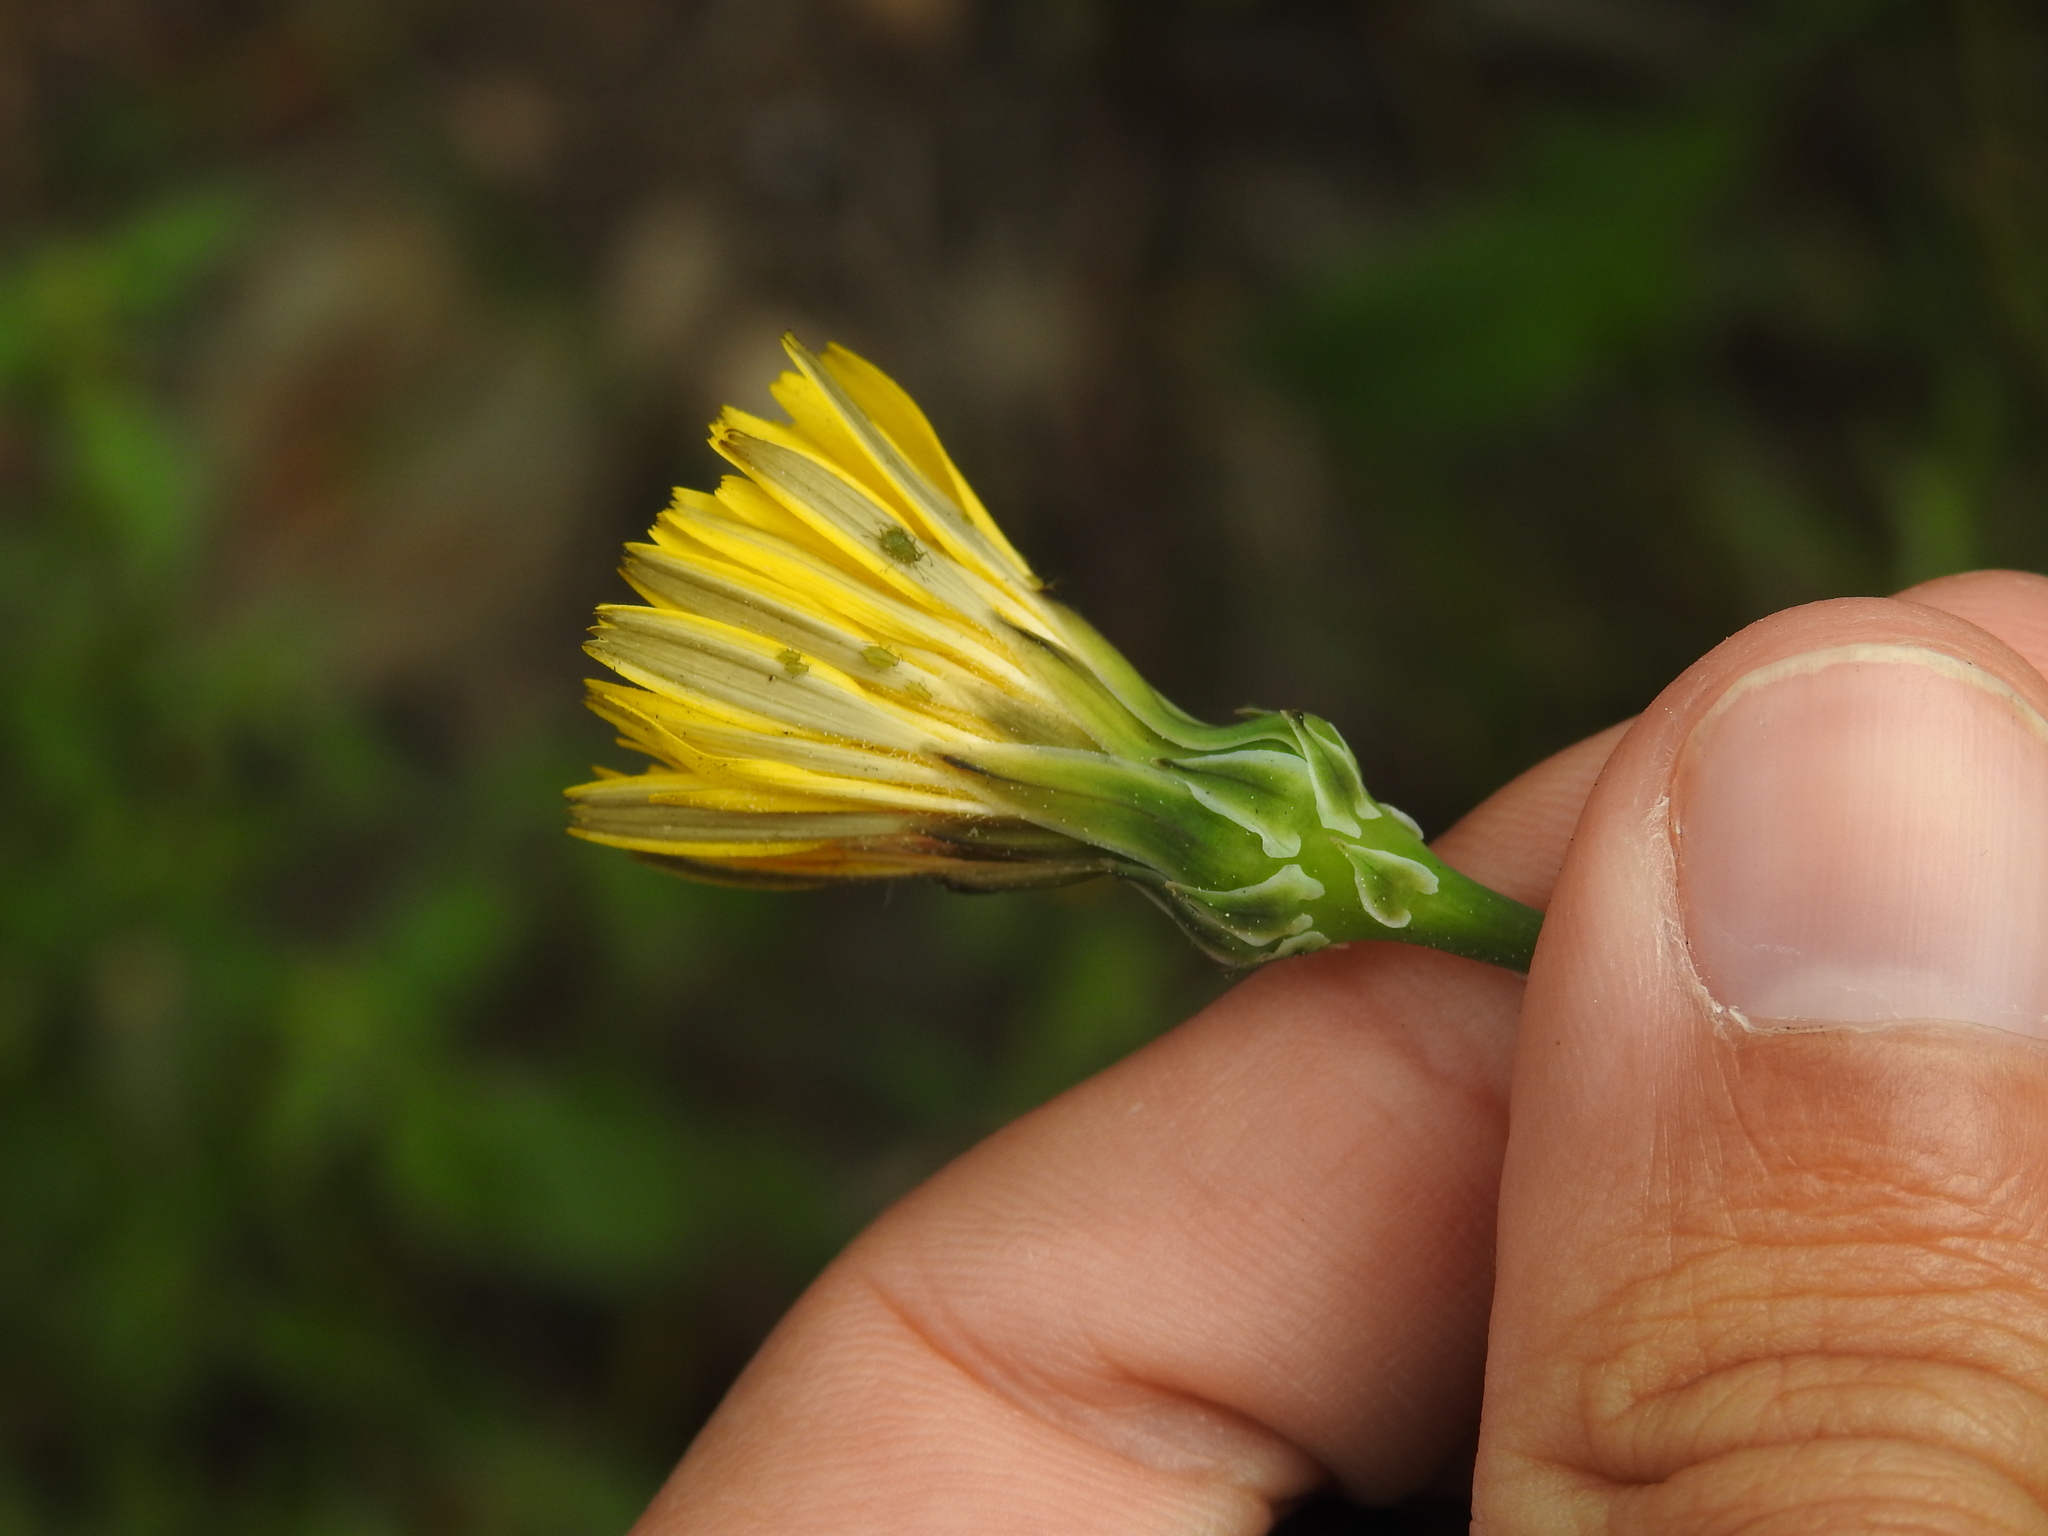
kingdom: Plantae
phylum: Tracheophyta
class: Magnoliopsida
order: Asterales
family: Asteraceae
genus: Reichardia
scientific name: Reichardia picroides
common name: Common brighteyes
